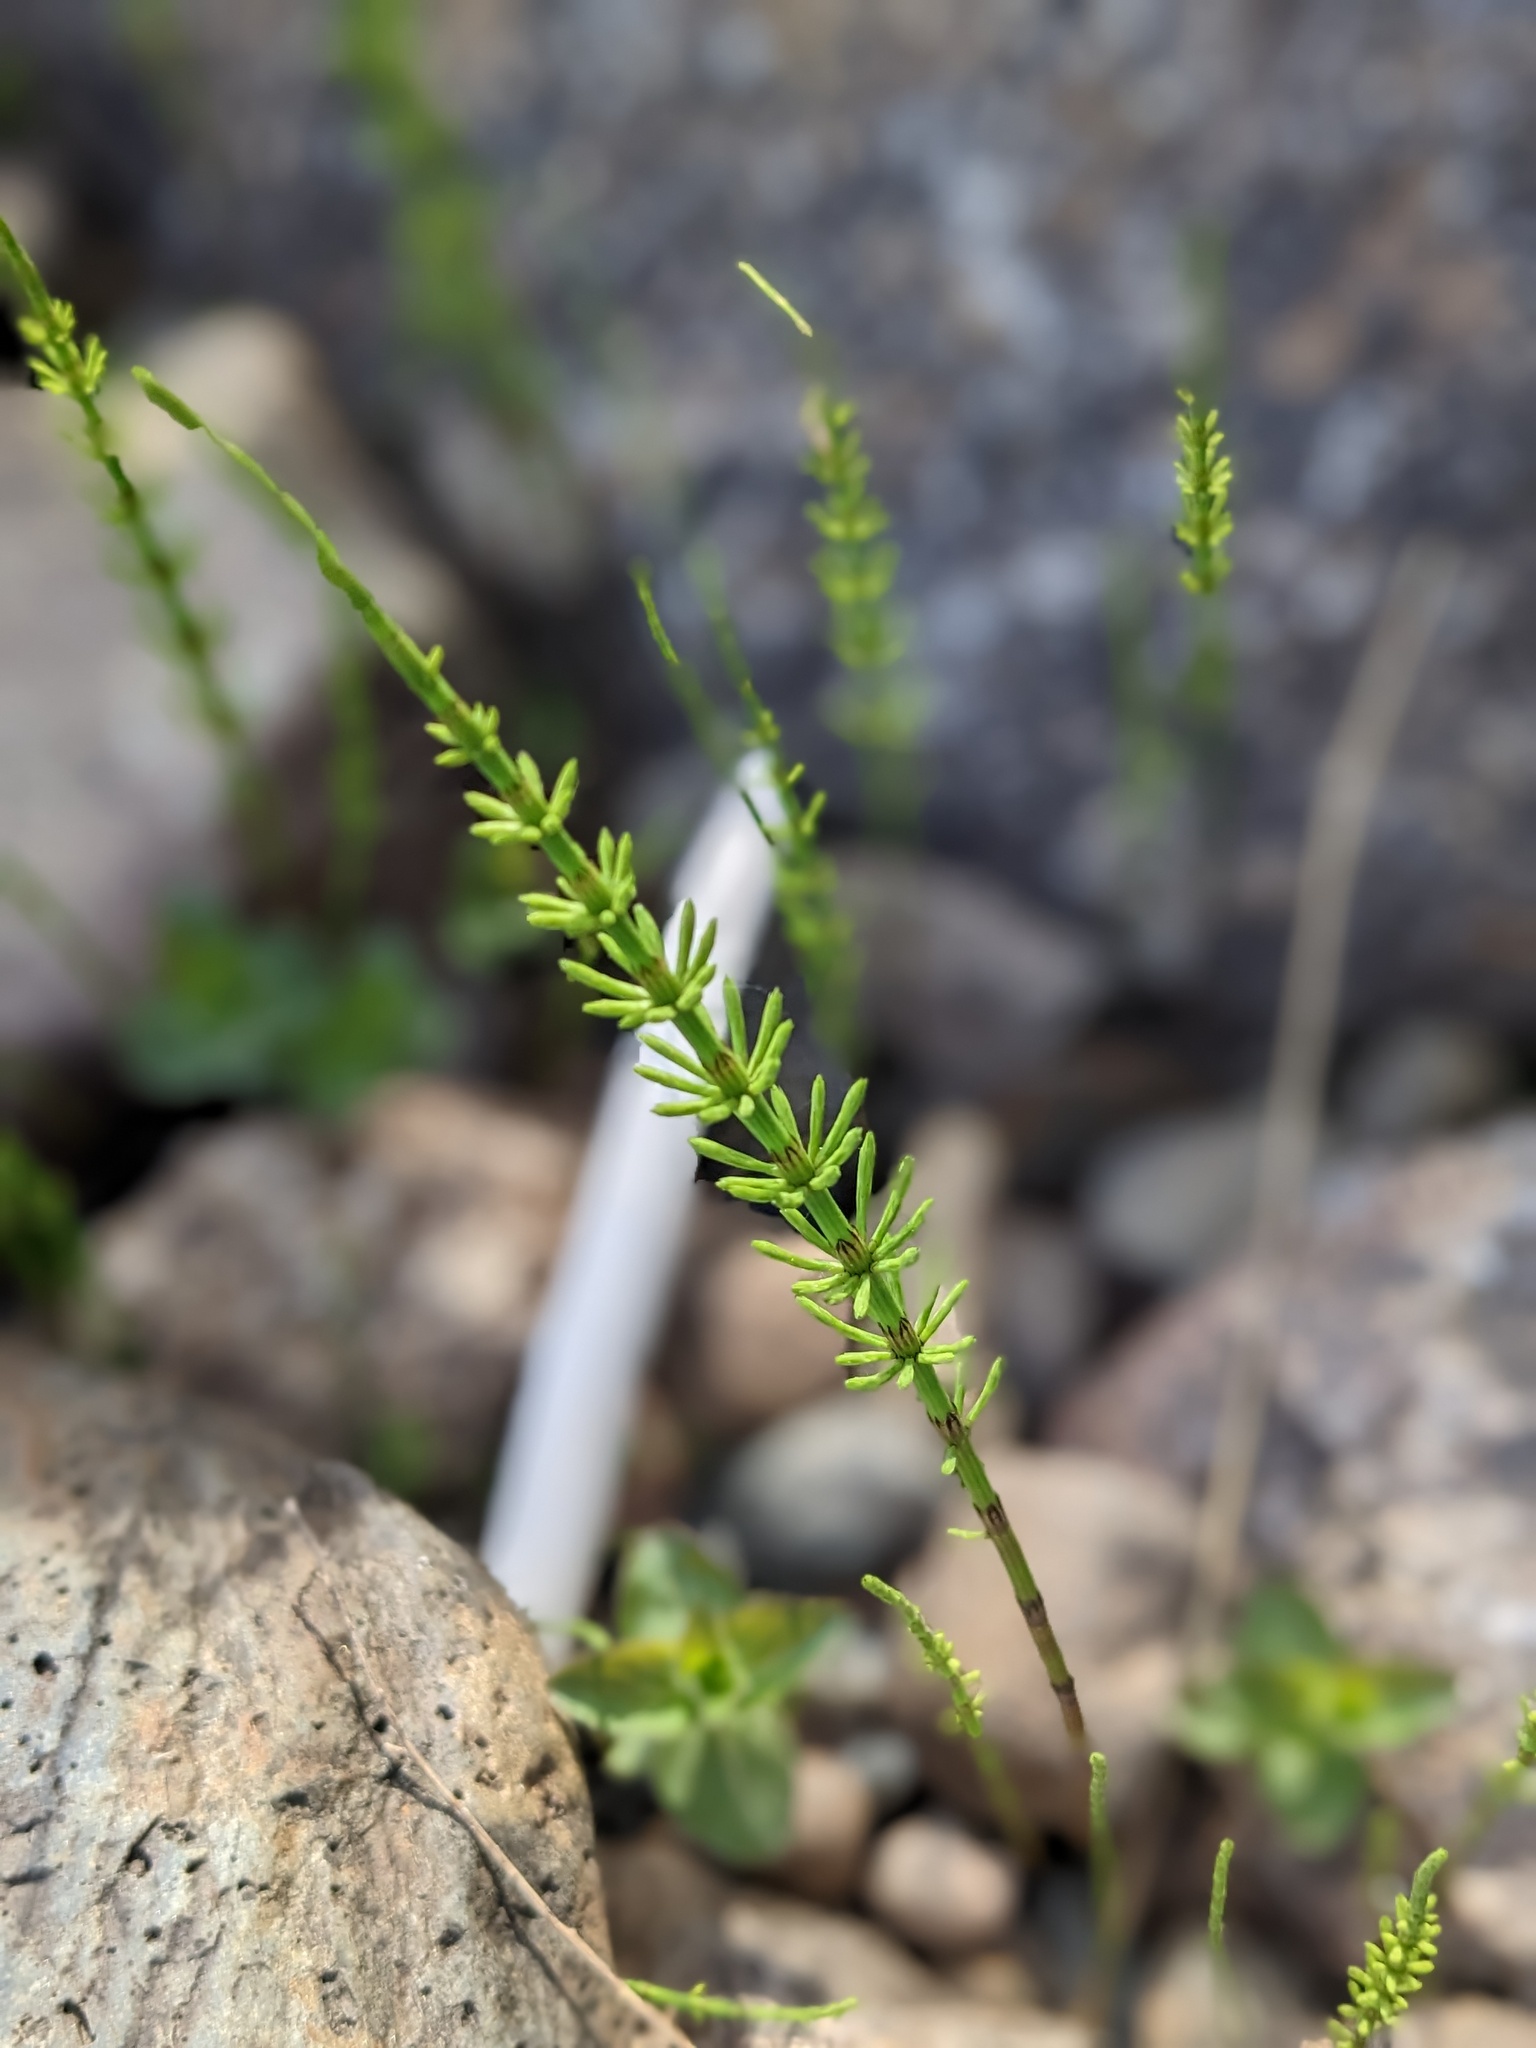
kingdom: Plantae
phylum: Tracheophyta
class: Polypodiopsida
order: Equisetales
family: Equisetaceae
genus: Equisetum
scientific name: Equisetum arvense
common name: Field horsetail
